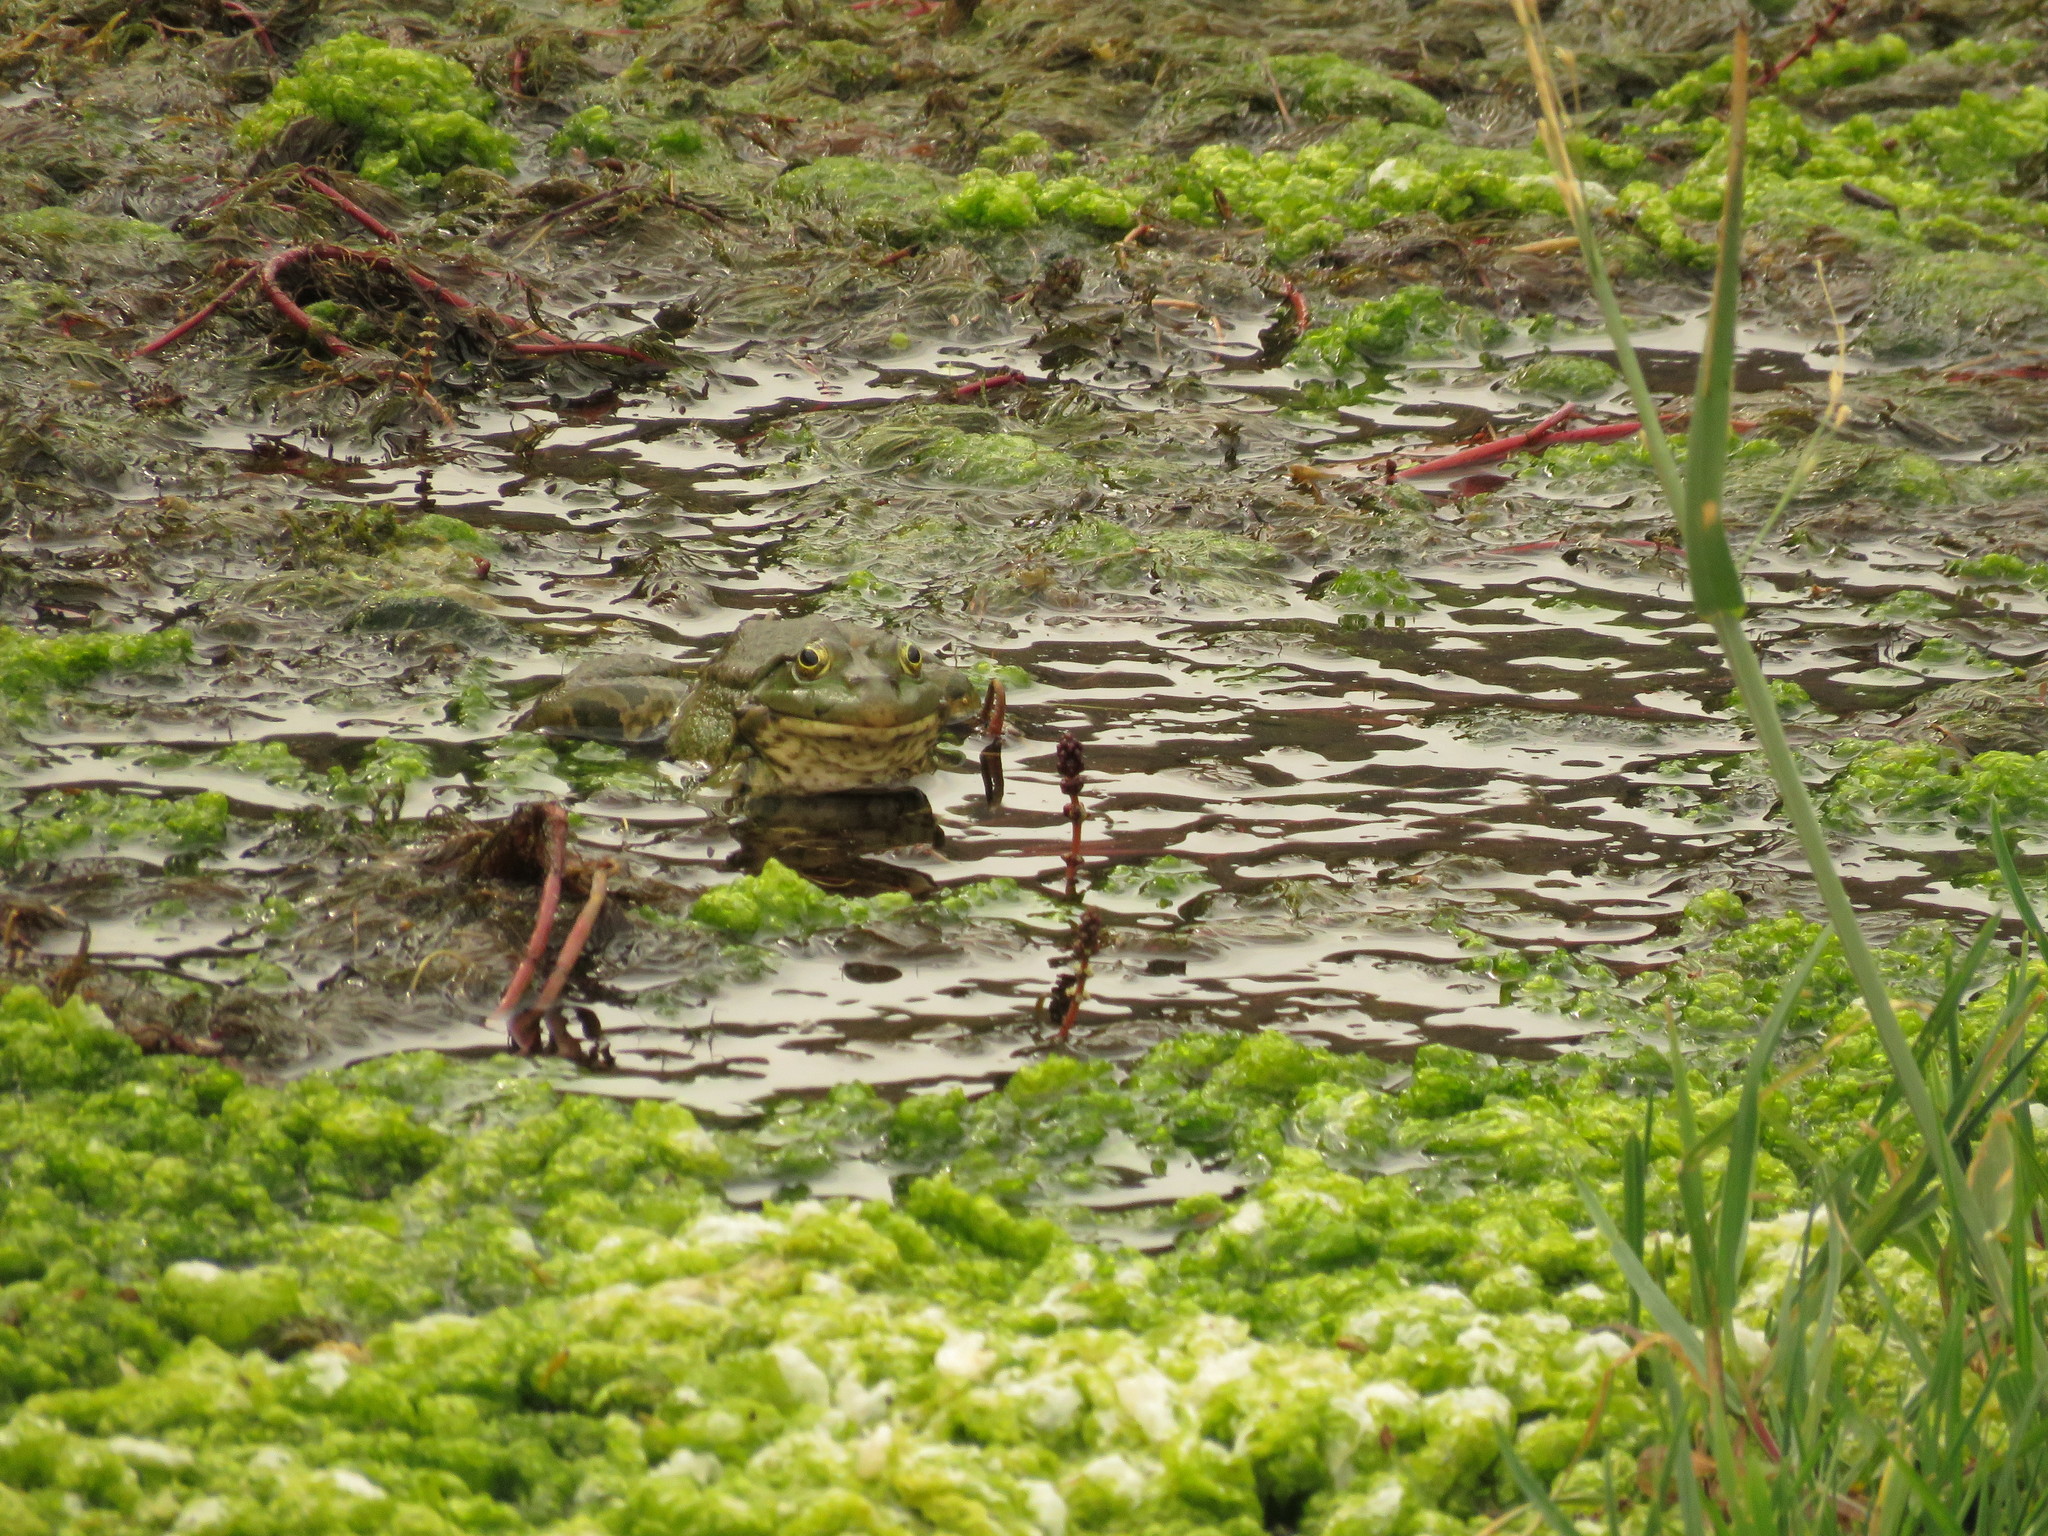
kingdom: Animalia
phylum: Chordata
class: Amphibia
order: Anura
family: Ranidae
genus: Pelophylax
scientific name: Pelophylax ridibundus
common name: Marsh frog
